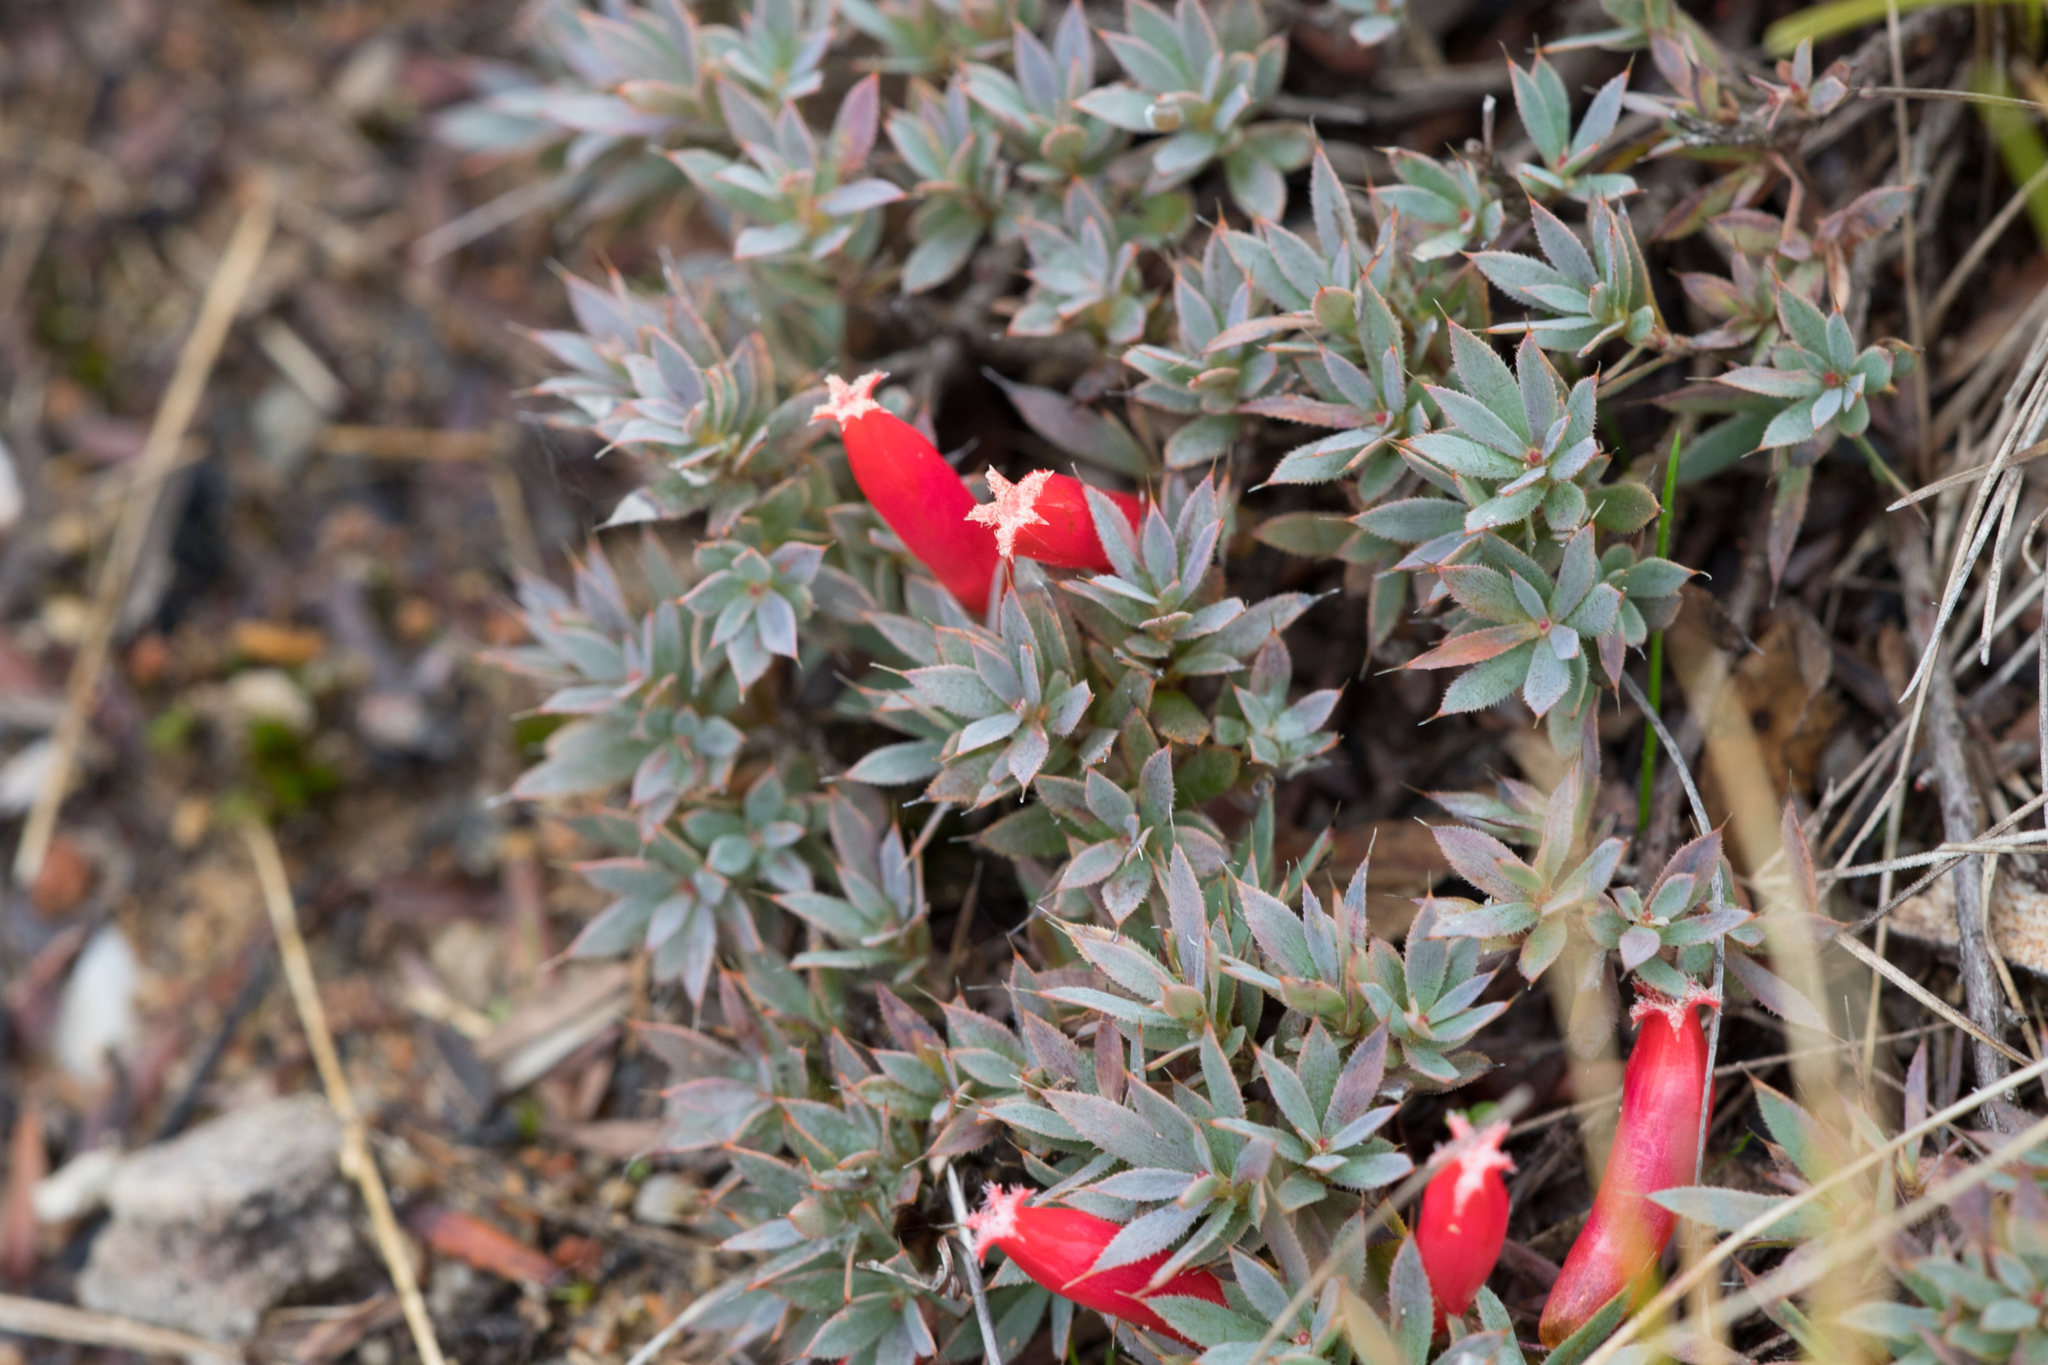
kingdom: Plantae
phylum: Tracheophyta
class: Magnoliopsida
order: Ericales
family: Ericaceae
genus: Styphelia
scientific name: Styphelia humifusa
